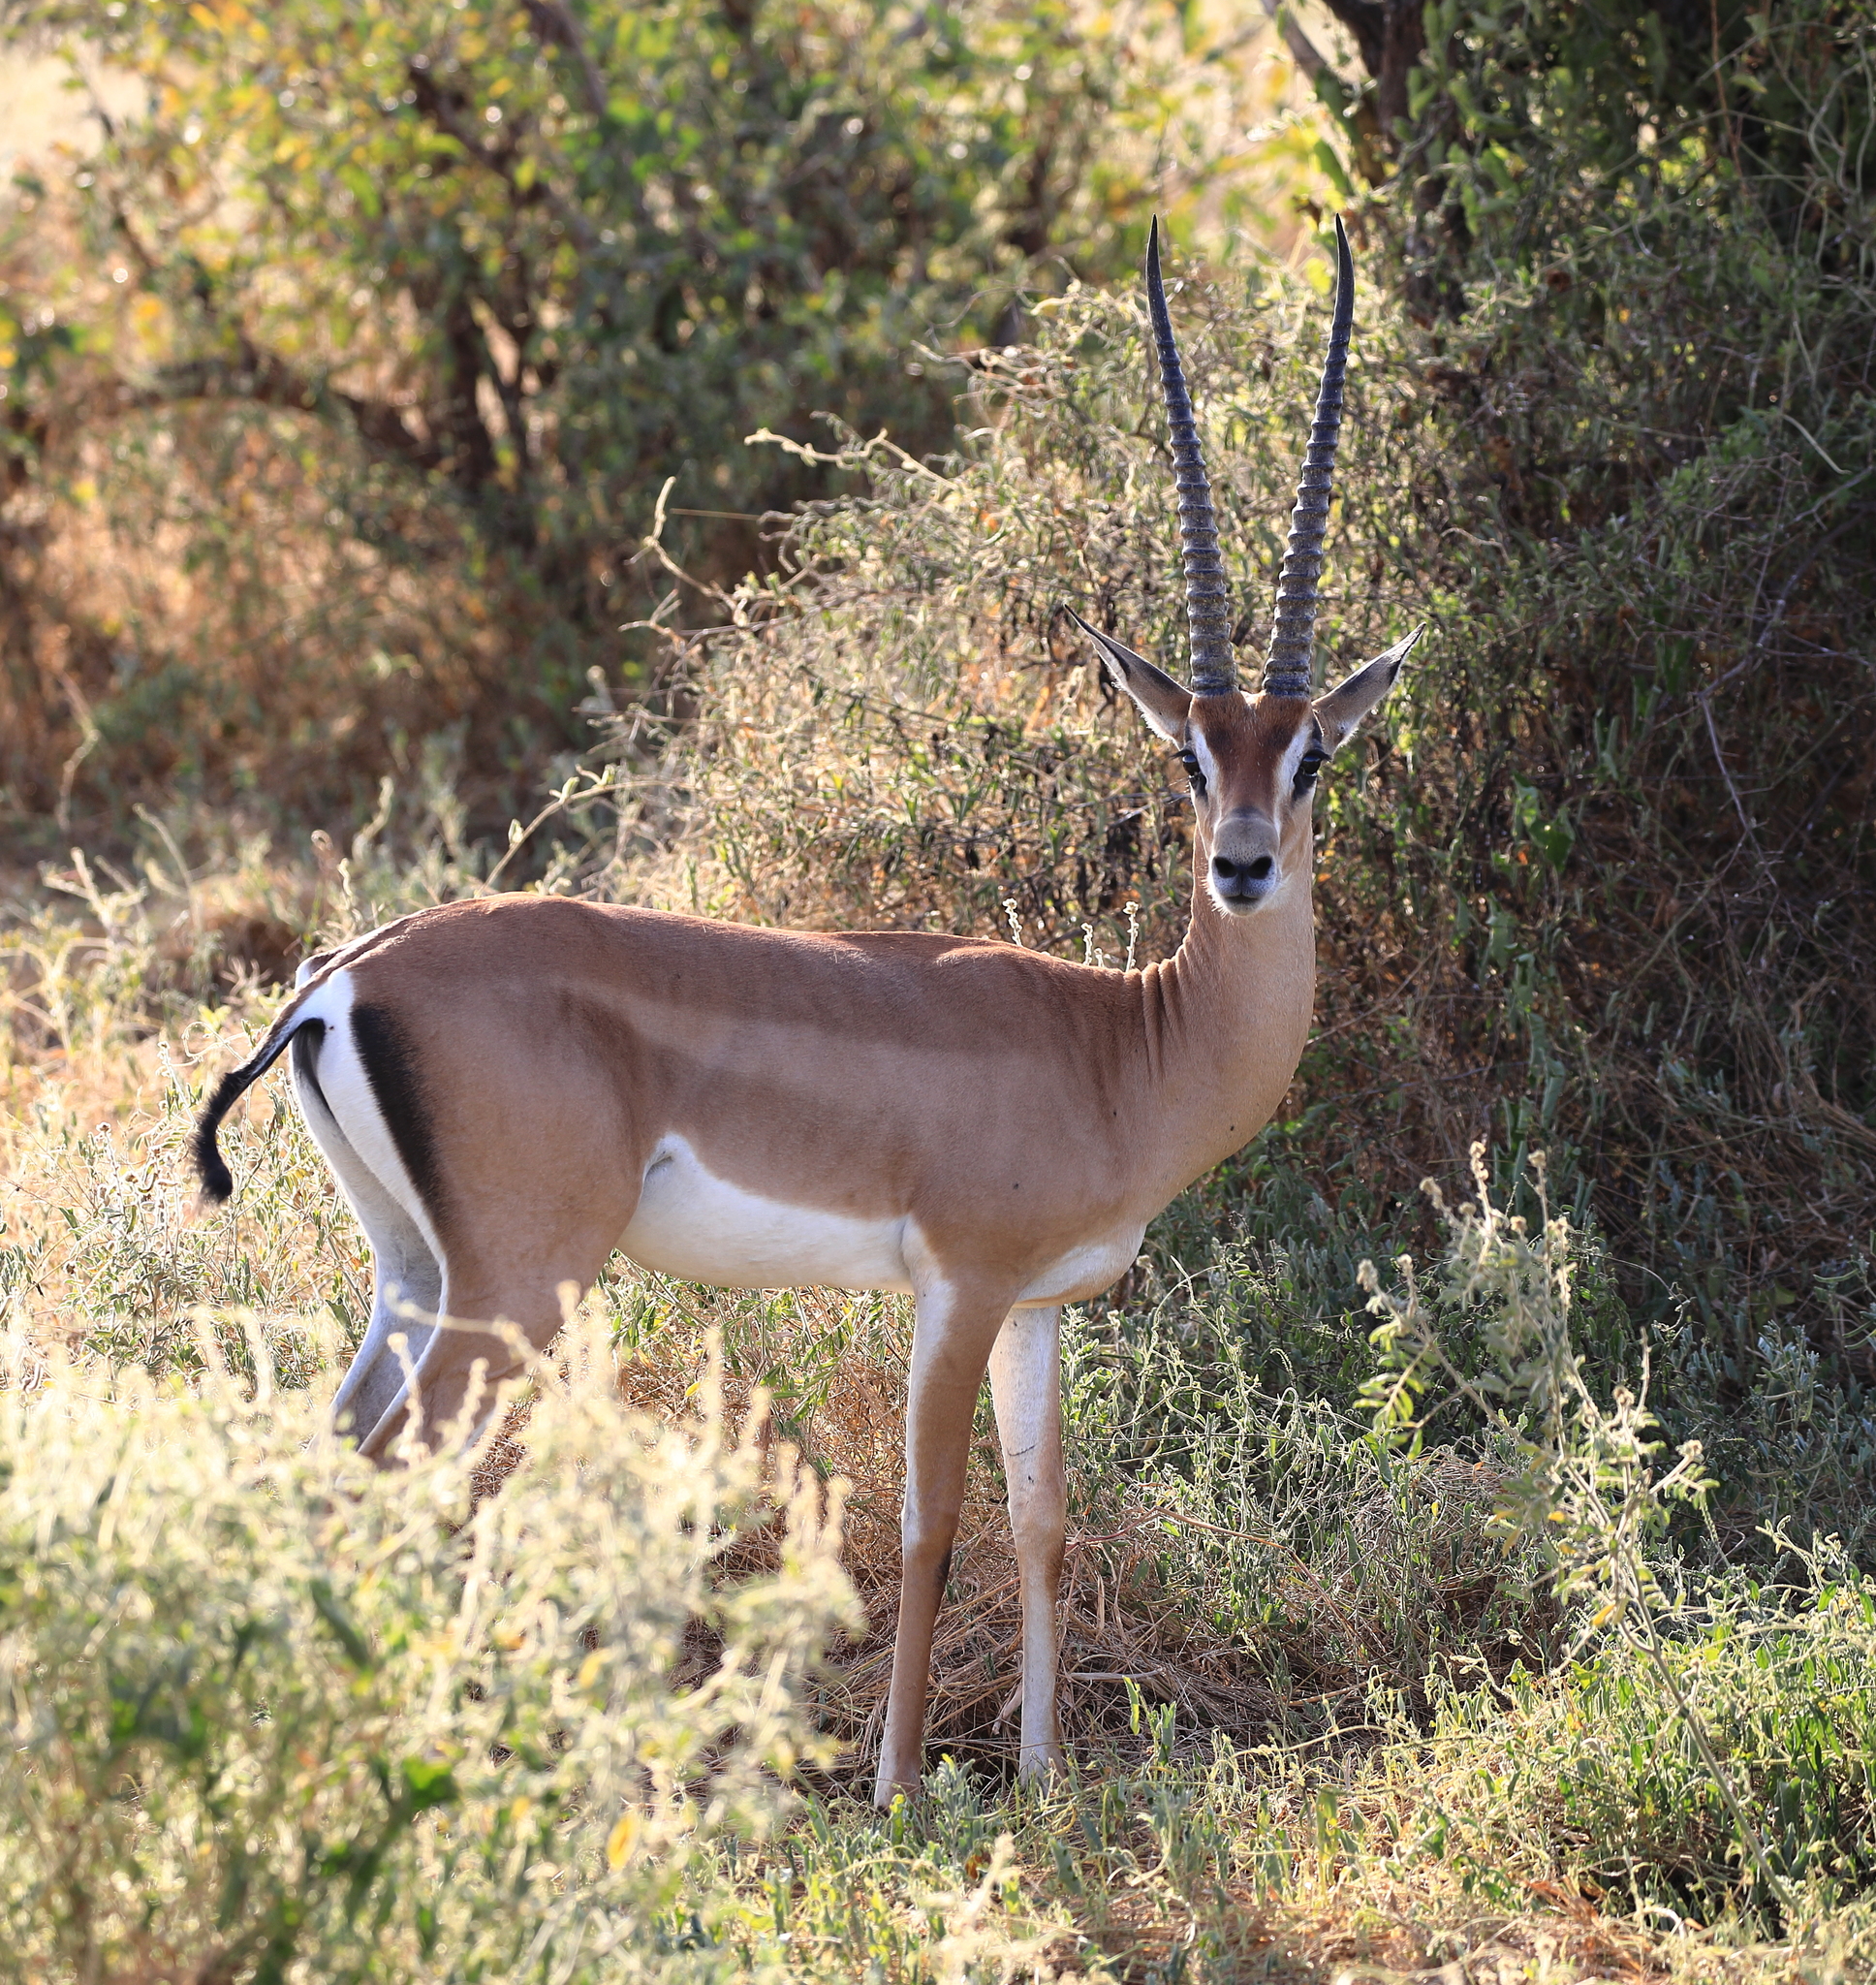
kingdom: Animalia
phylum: Chordata
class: Mammalia
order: Artiodactyla
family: Bovidae
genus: Nanger
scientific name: Nanger granti
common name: Grant's gazelle
